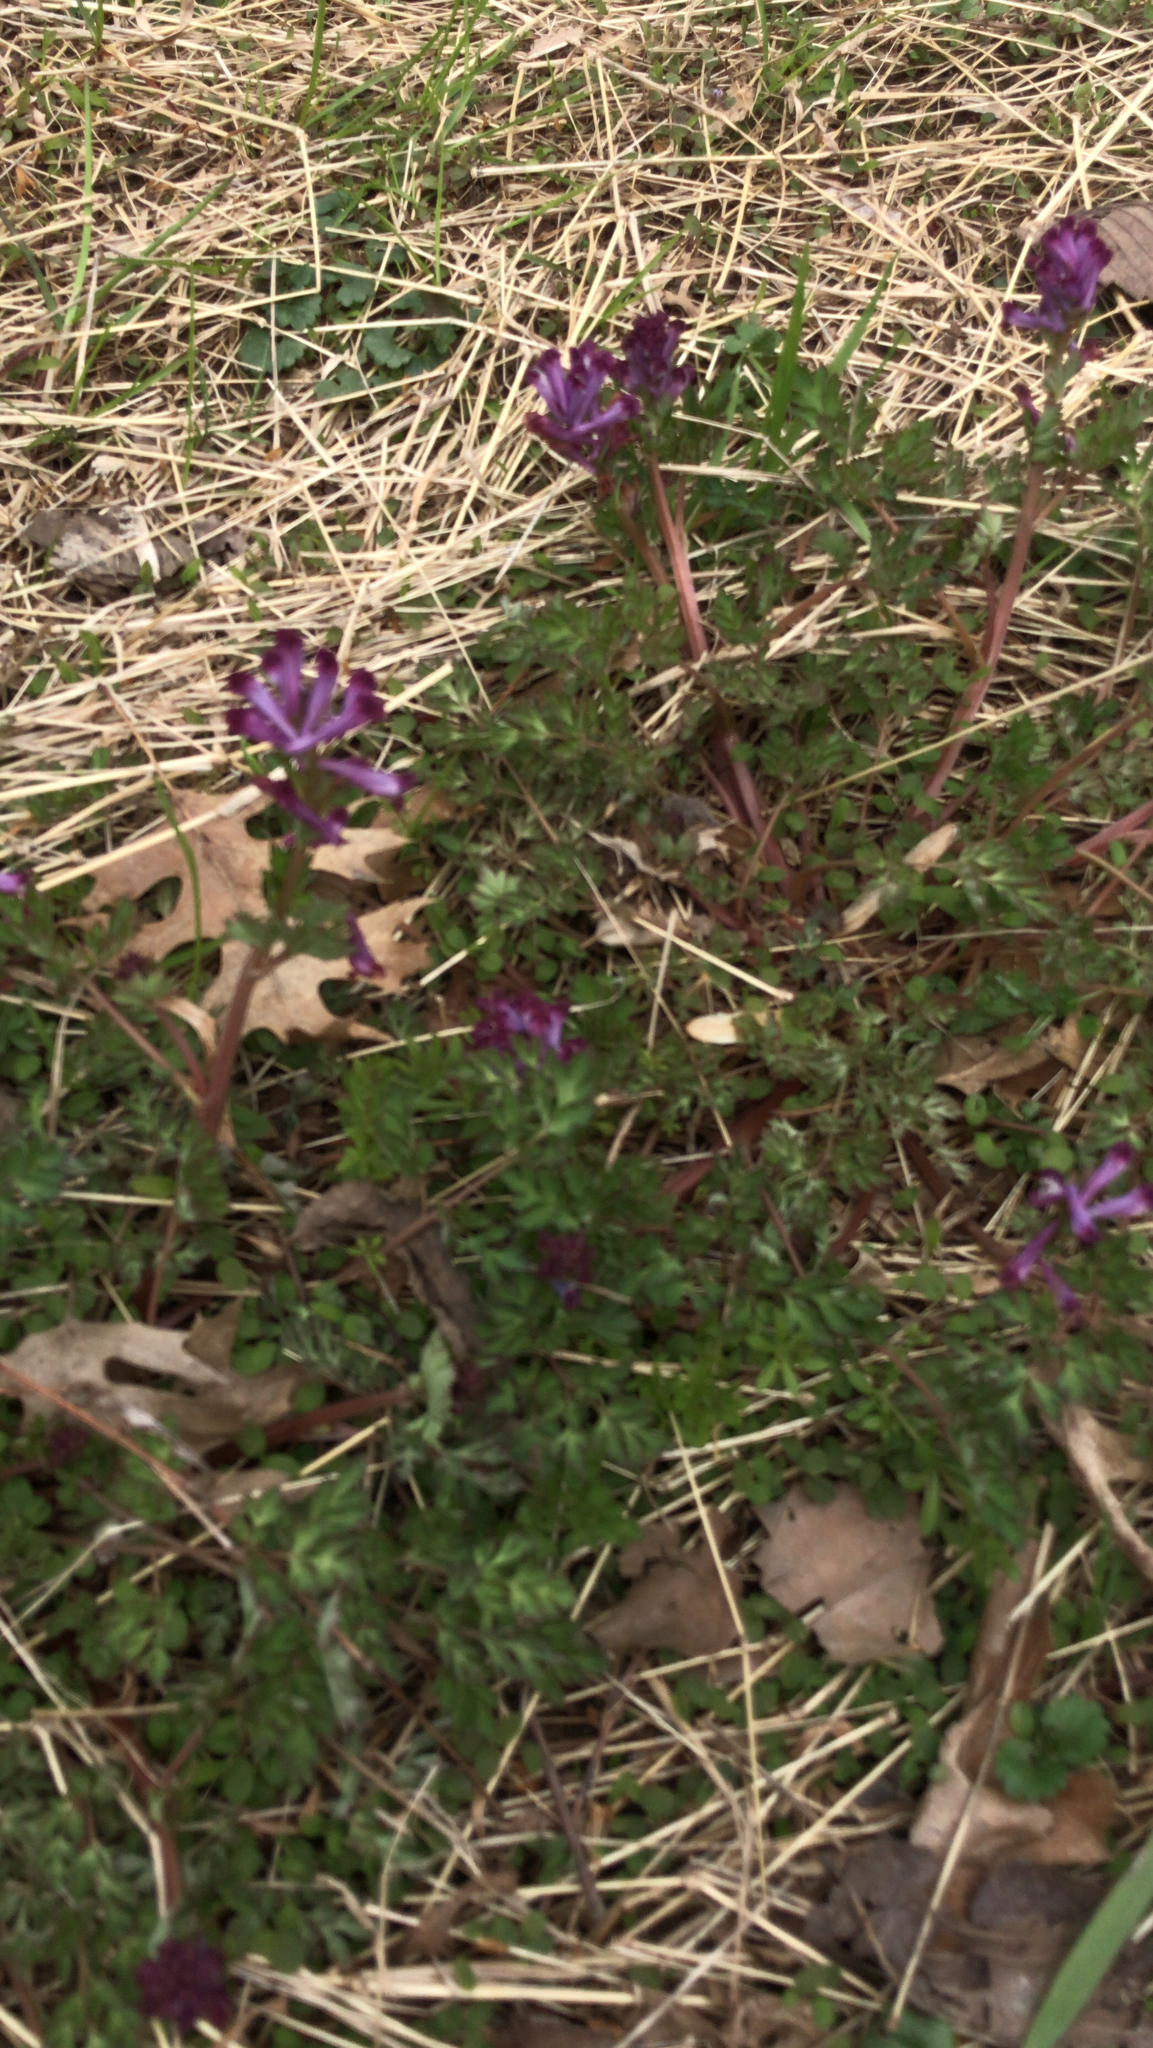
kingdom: Plantae
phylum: Tracheophyta
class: Magnoliopsida
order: Ranunculales
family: Papaveraceae
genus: Corydalis
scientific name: Corydalis incisa
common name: Incised fumewort
